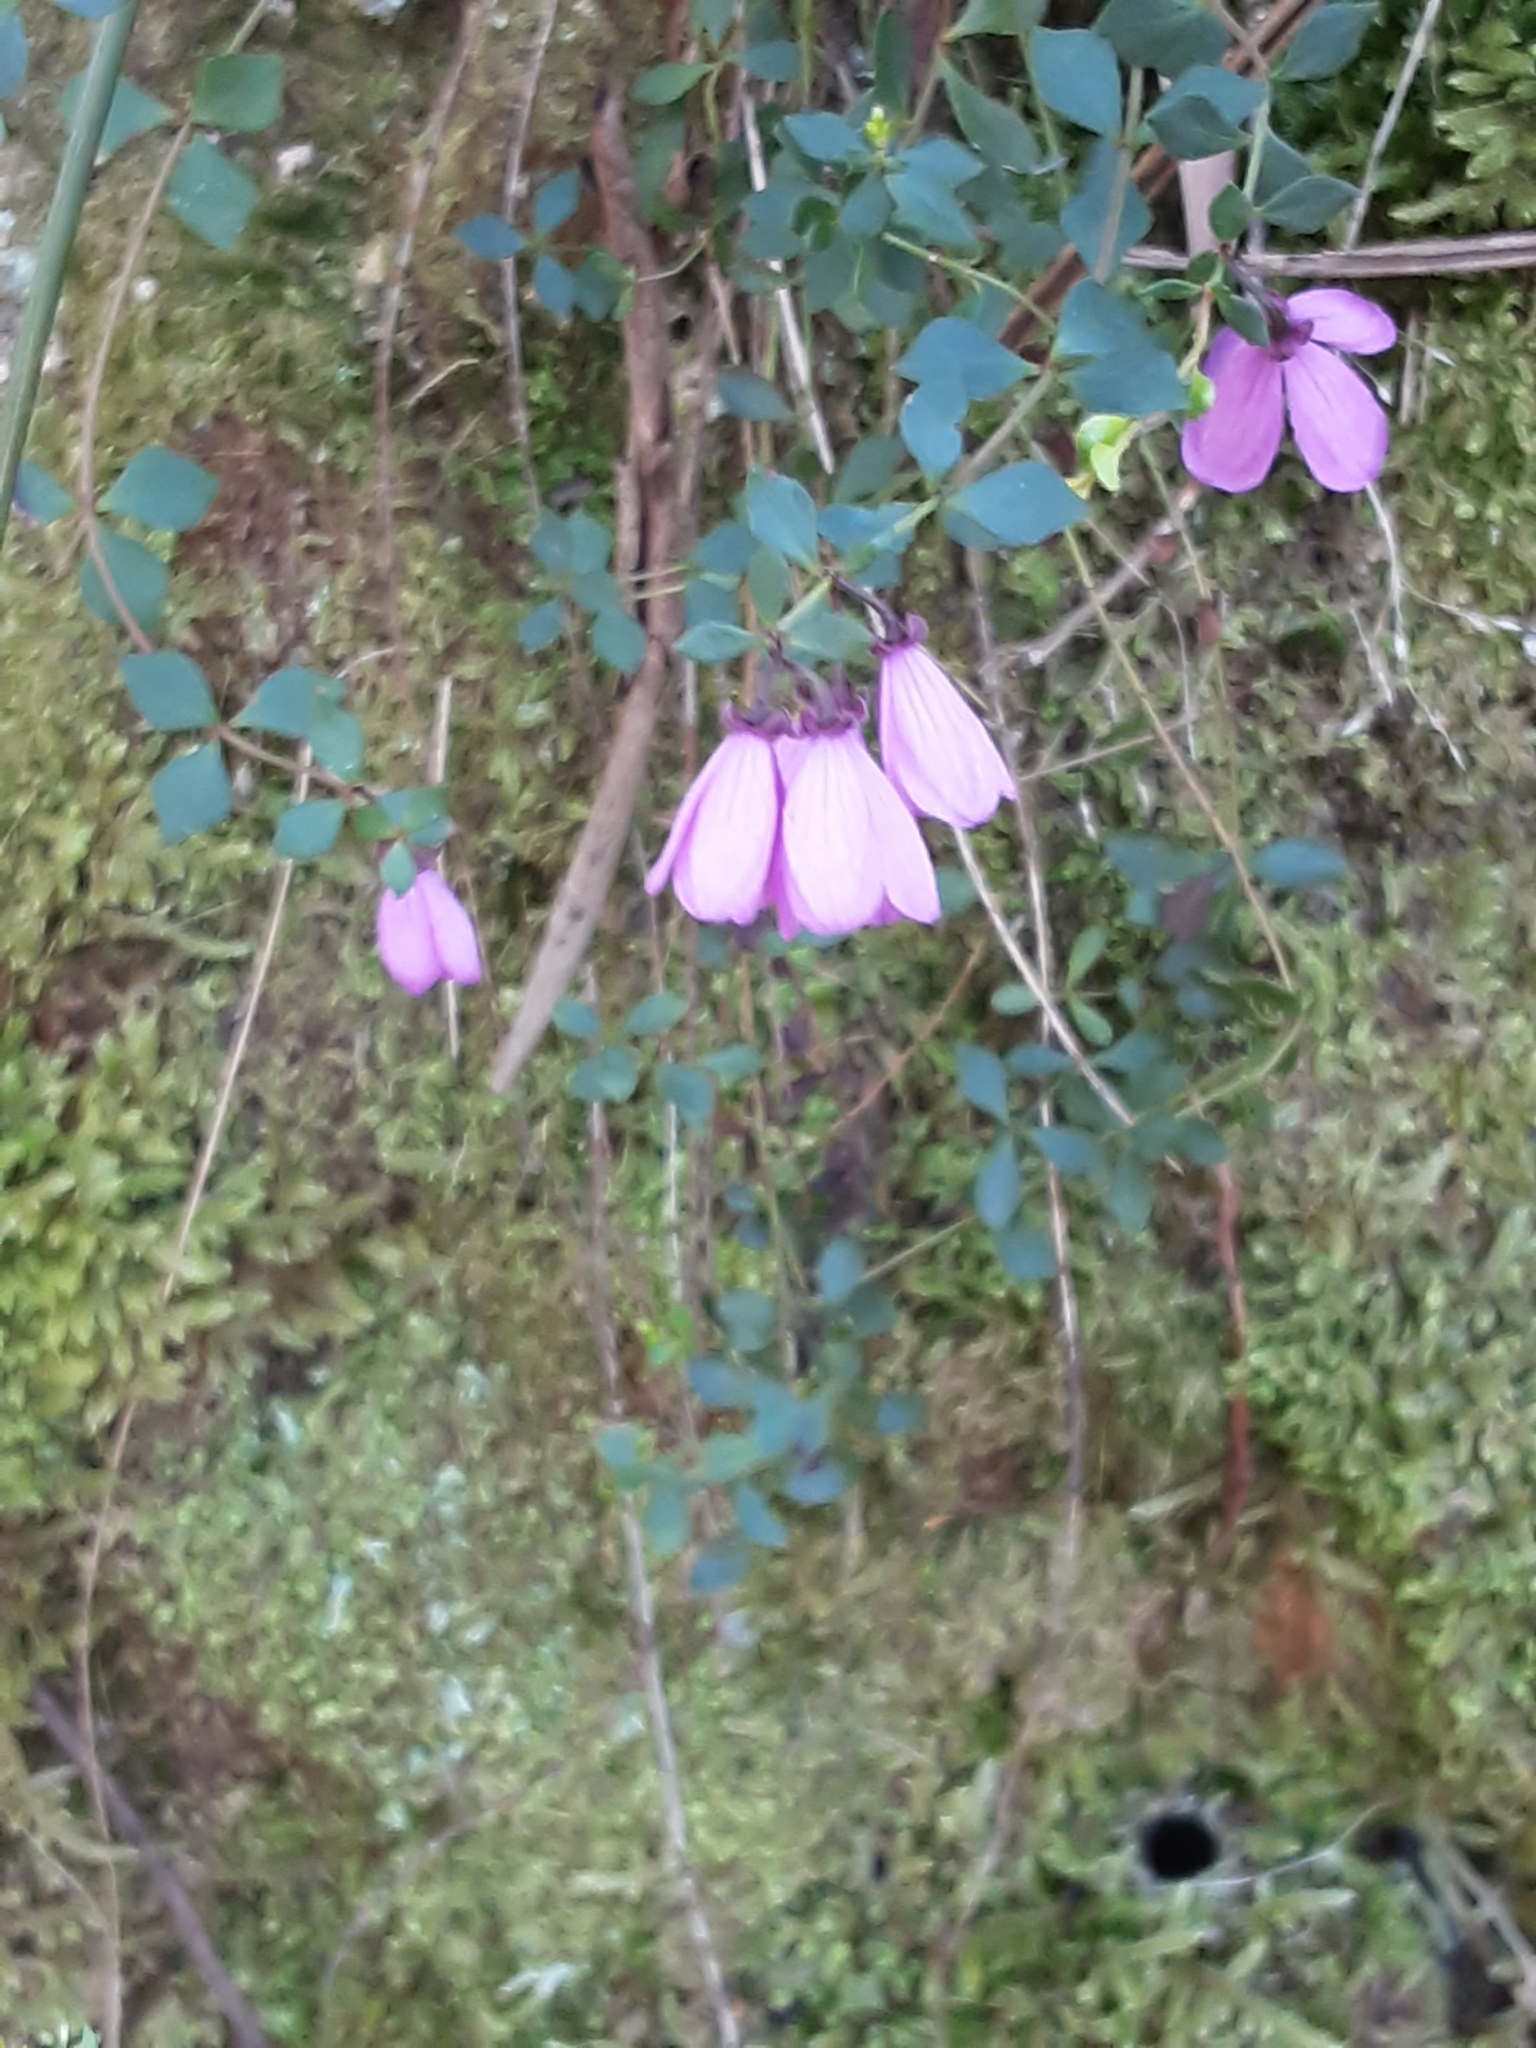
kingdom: Plantae
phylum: Tracheophyta
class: Magnoliopsida
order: Oxalidales
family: Elaeocarpaceae
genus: Tetratheca
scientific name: Tetratheca ciliata
